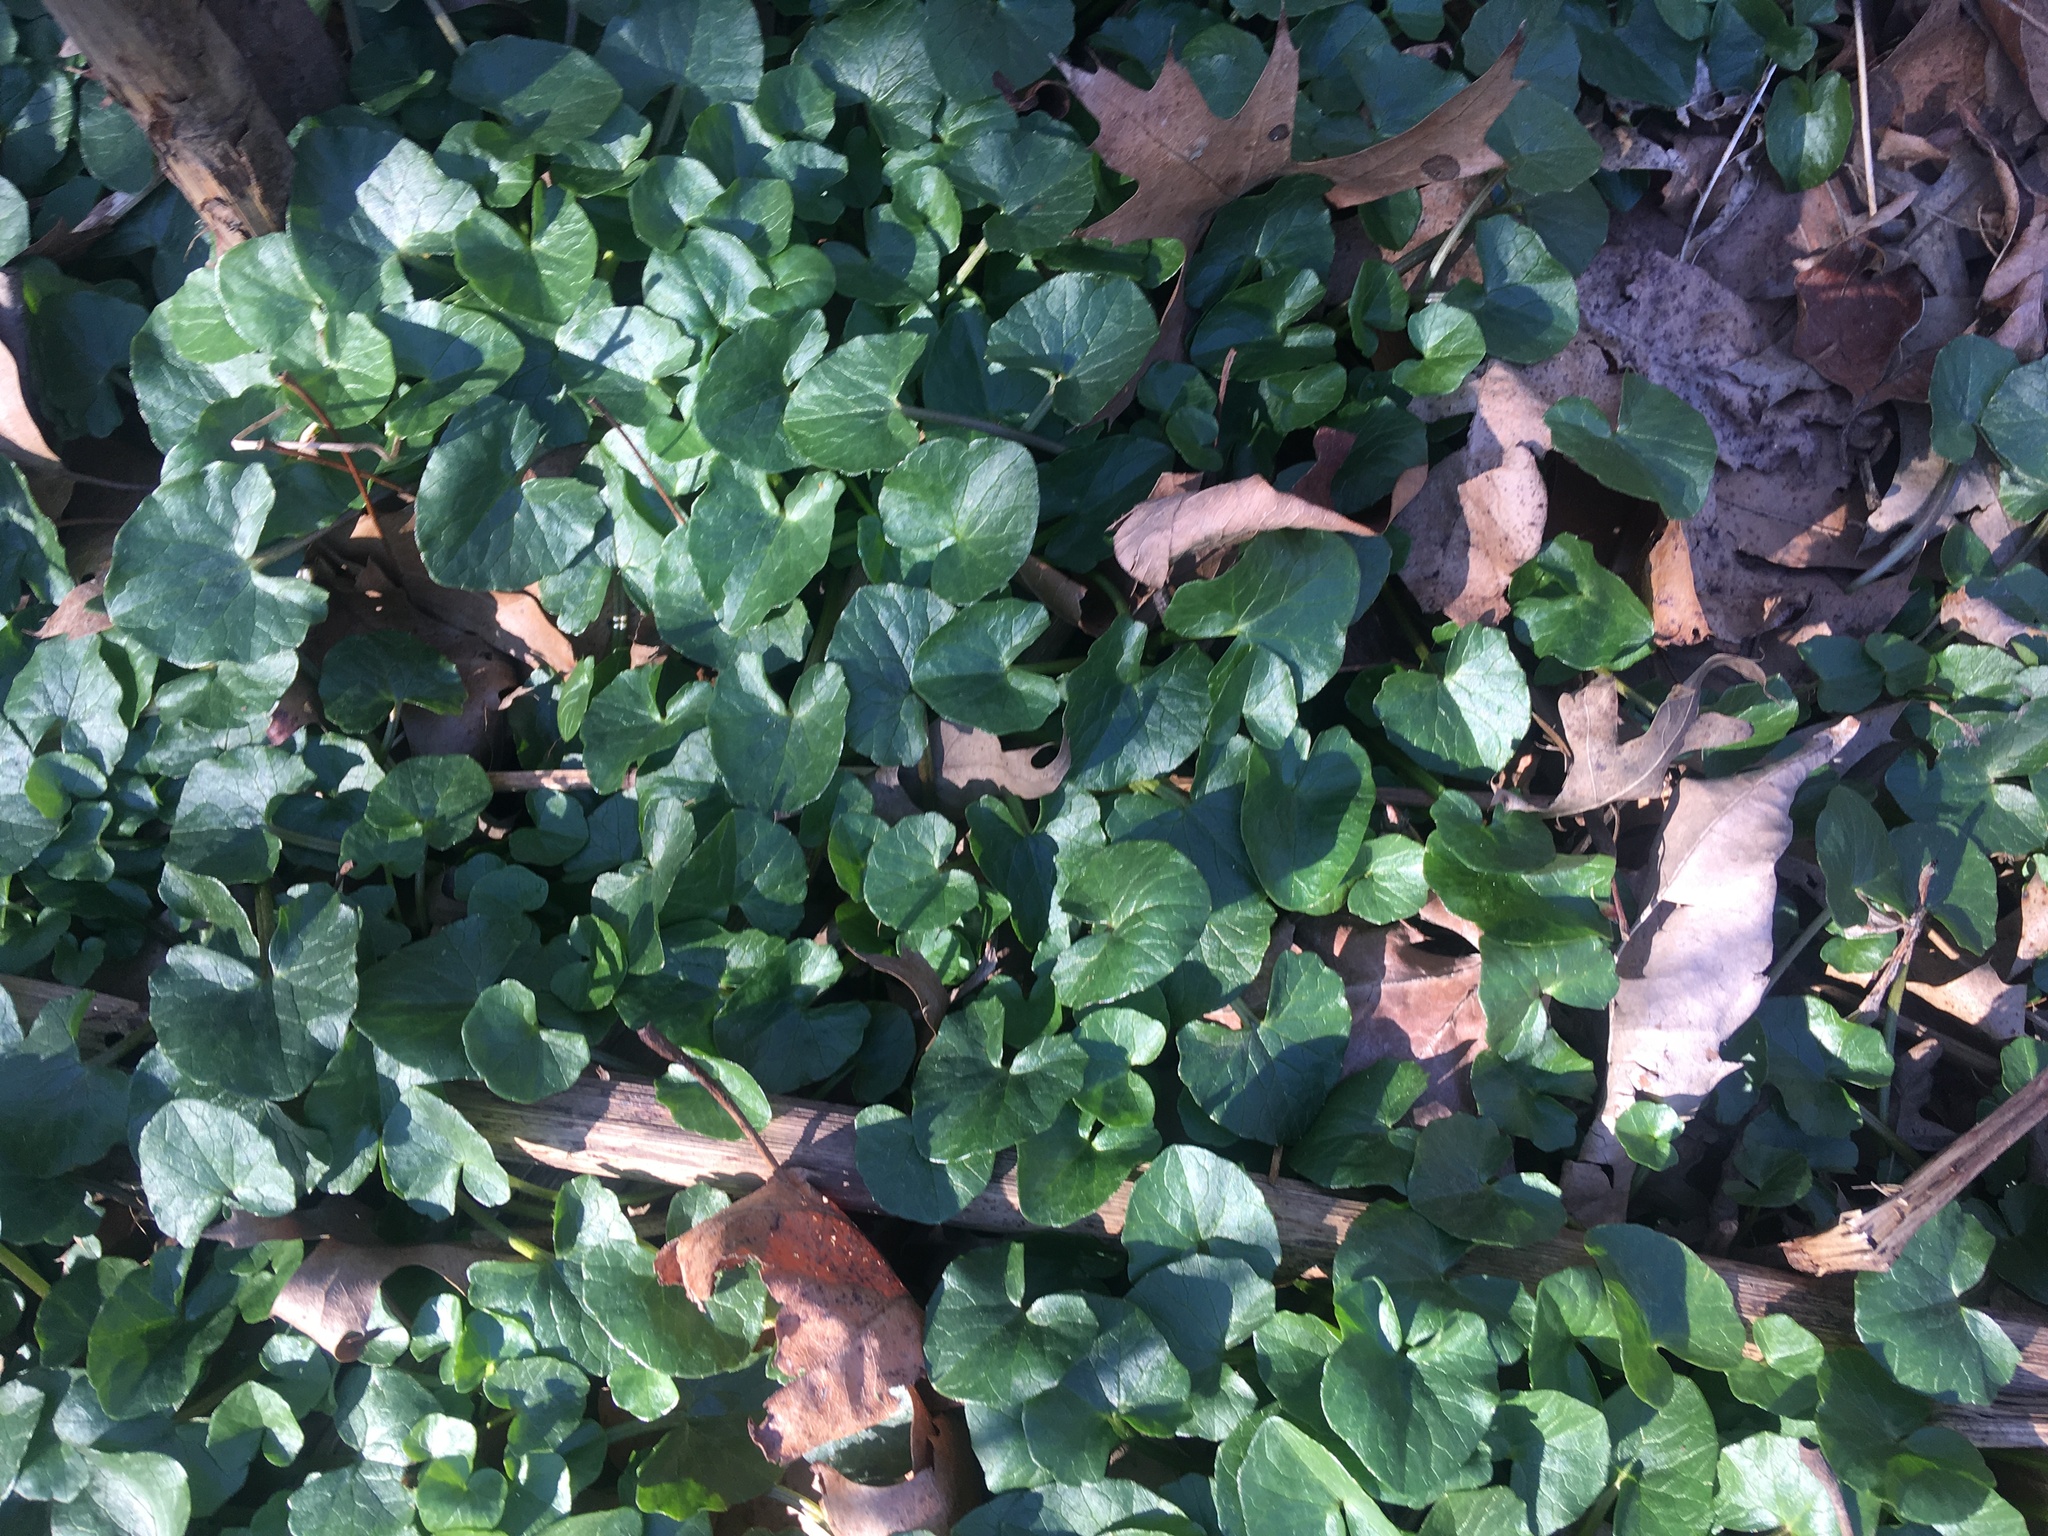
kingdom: Plantae
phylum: Tracheophyta
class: Magnoliopsida
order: Ranunculales
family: Ranunculaceae
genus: Ficaria
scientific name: Ficaria verna
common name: Lesser celandine
